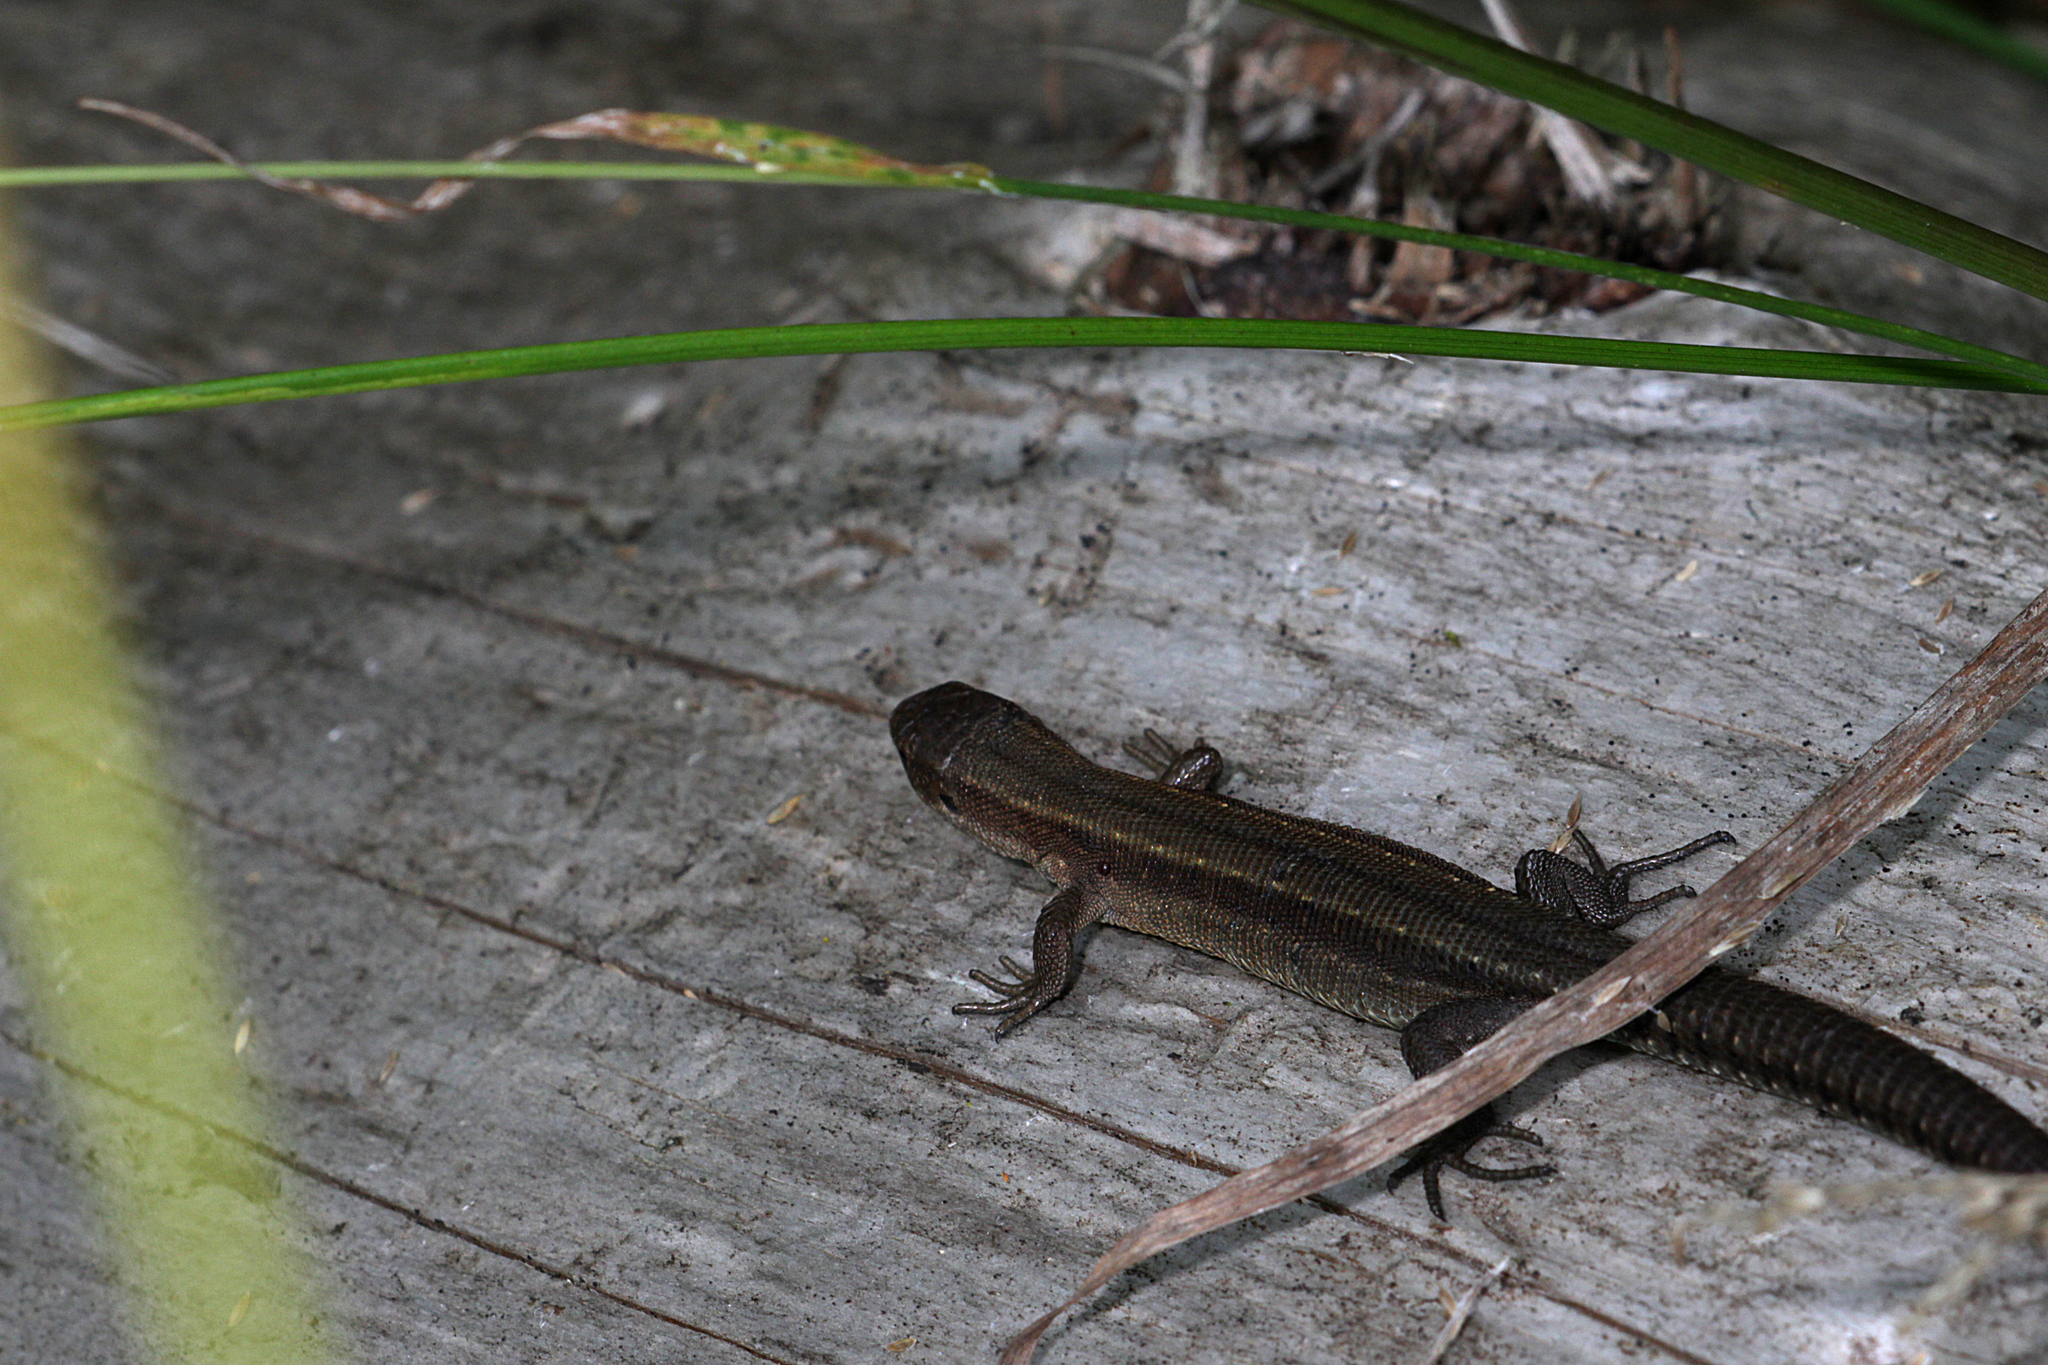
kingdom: Animalia
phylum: Chordata
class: Squamata
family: Lacertidae
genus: Zootoca
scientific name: Zootoca vivipara
